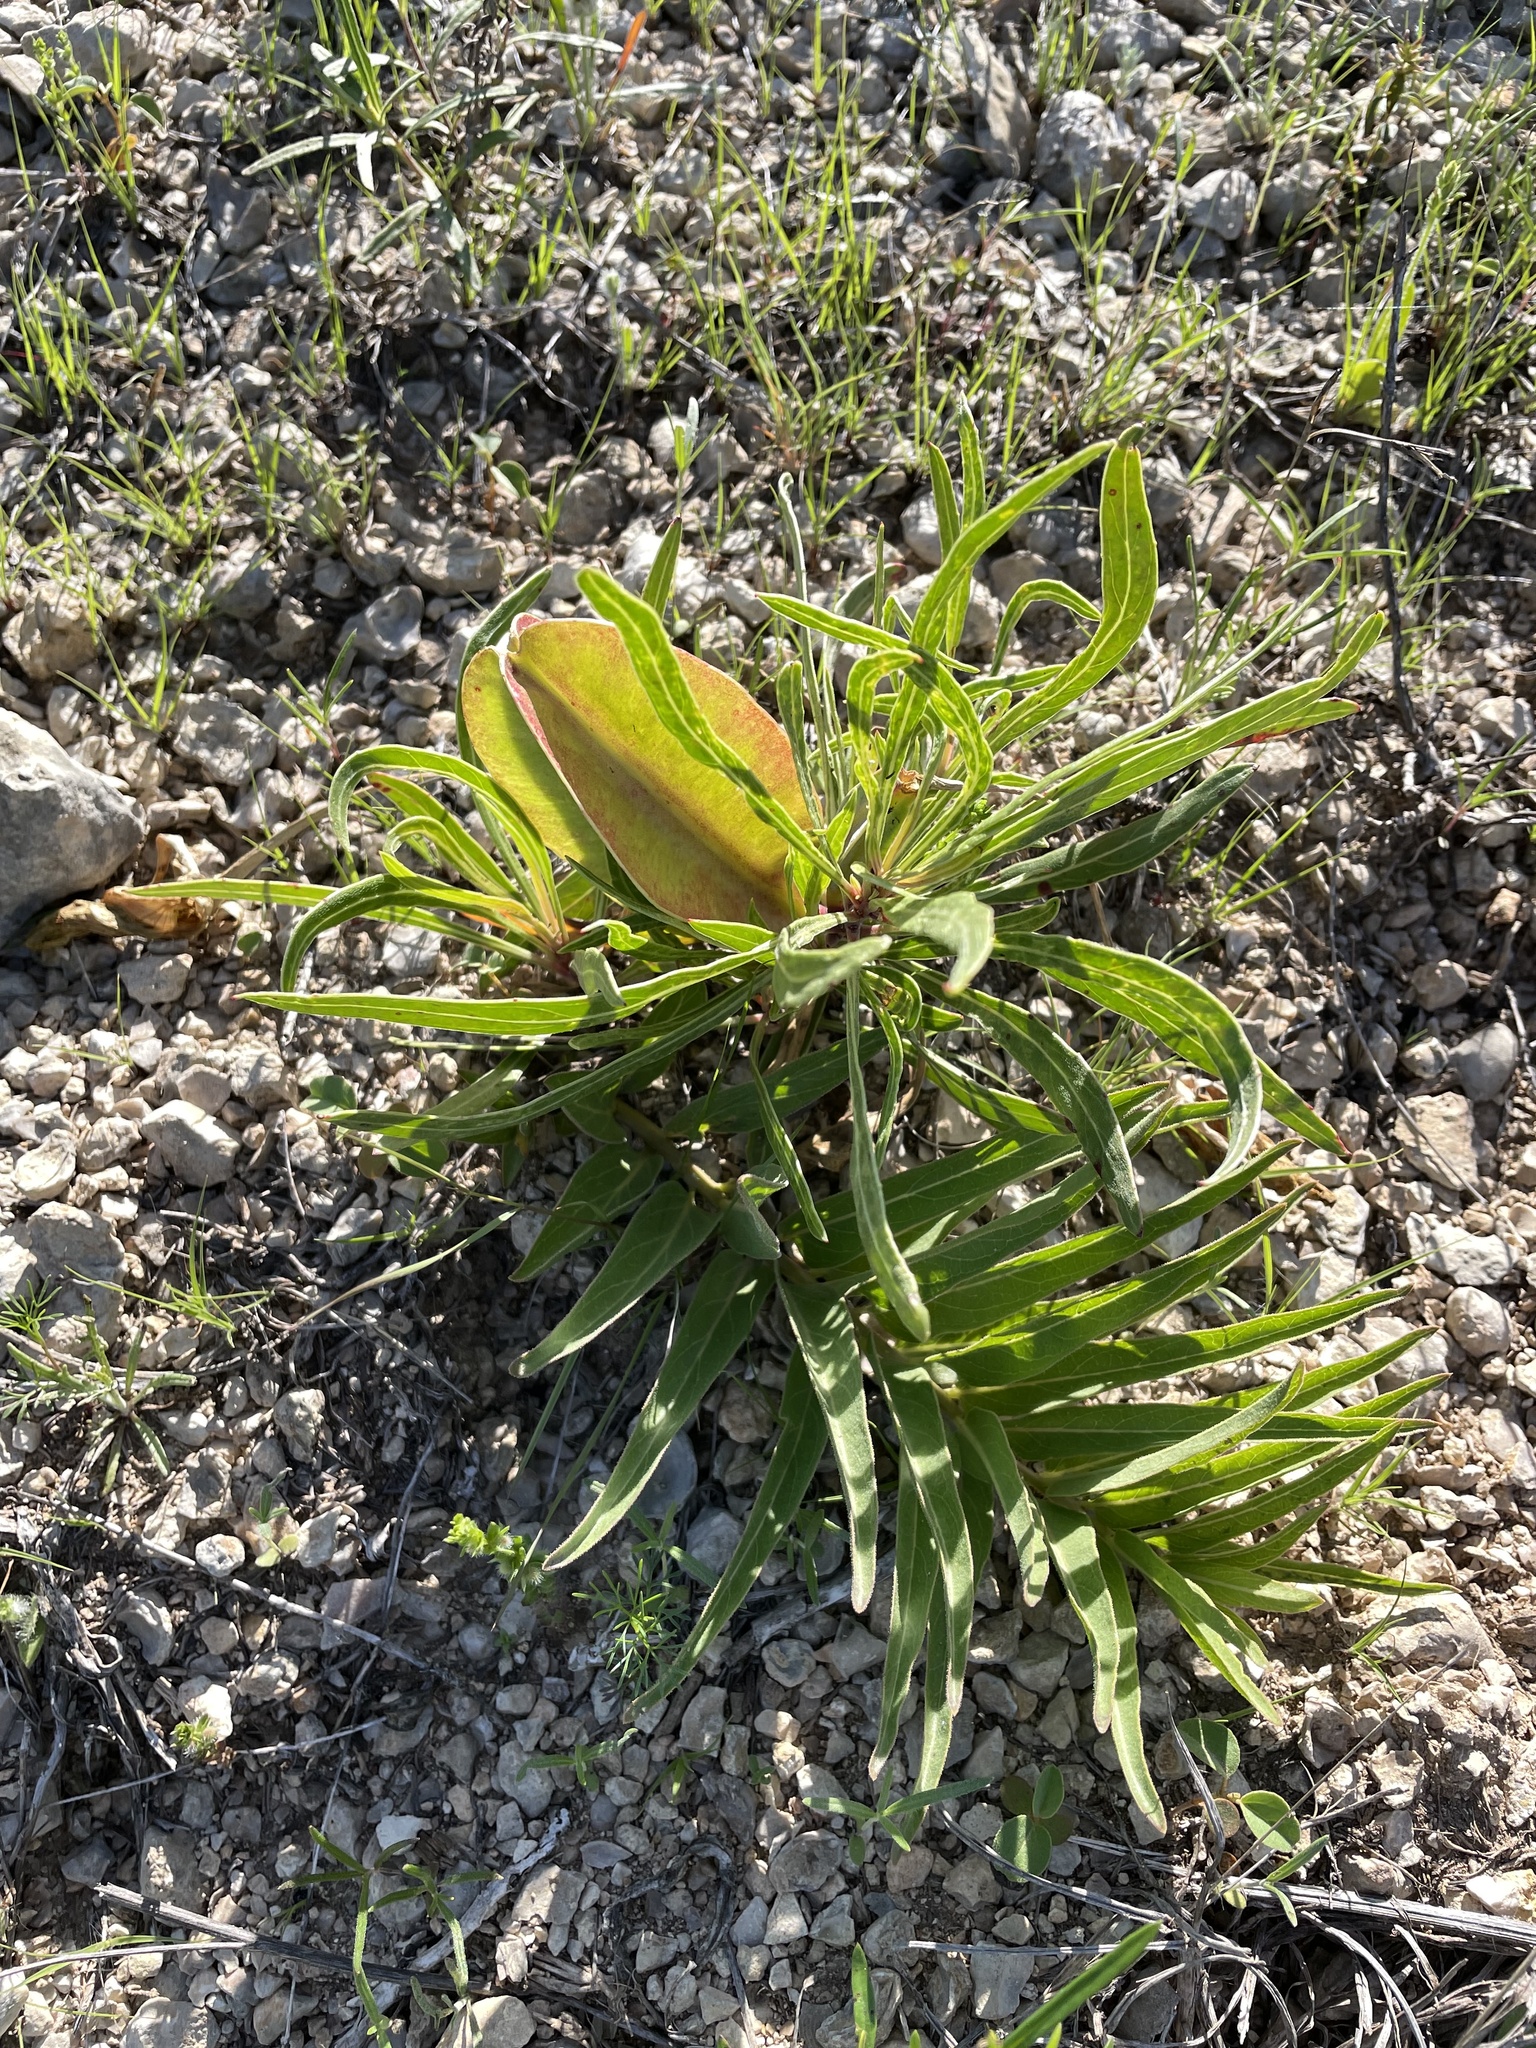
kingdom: Plantae
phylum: Tracheophyta
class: Magnoliopsida
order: Myrtales
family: Onagraceae
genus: Oenothera
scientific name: Oenothera macrocarpa
